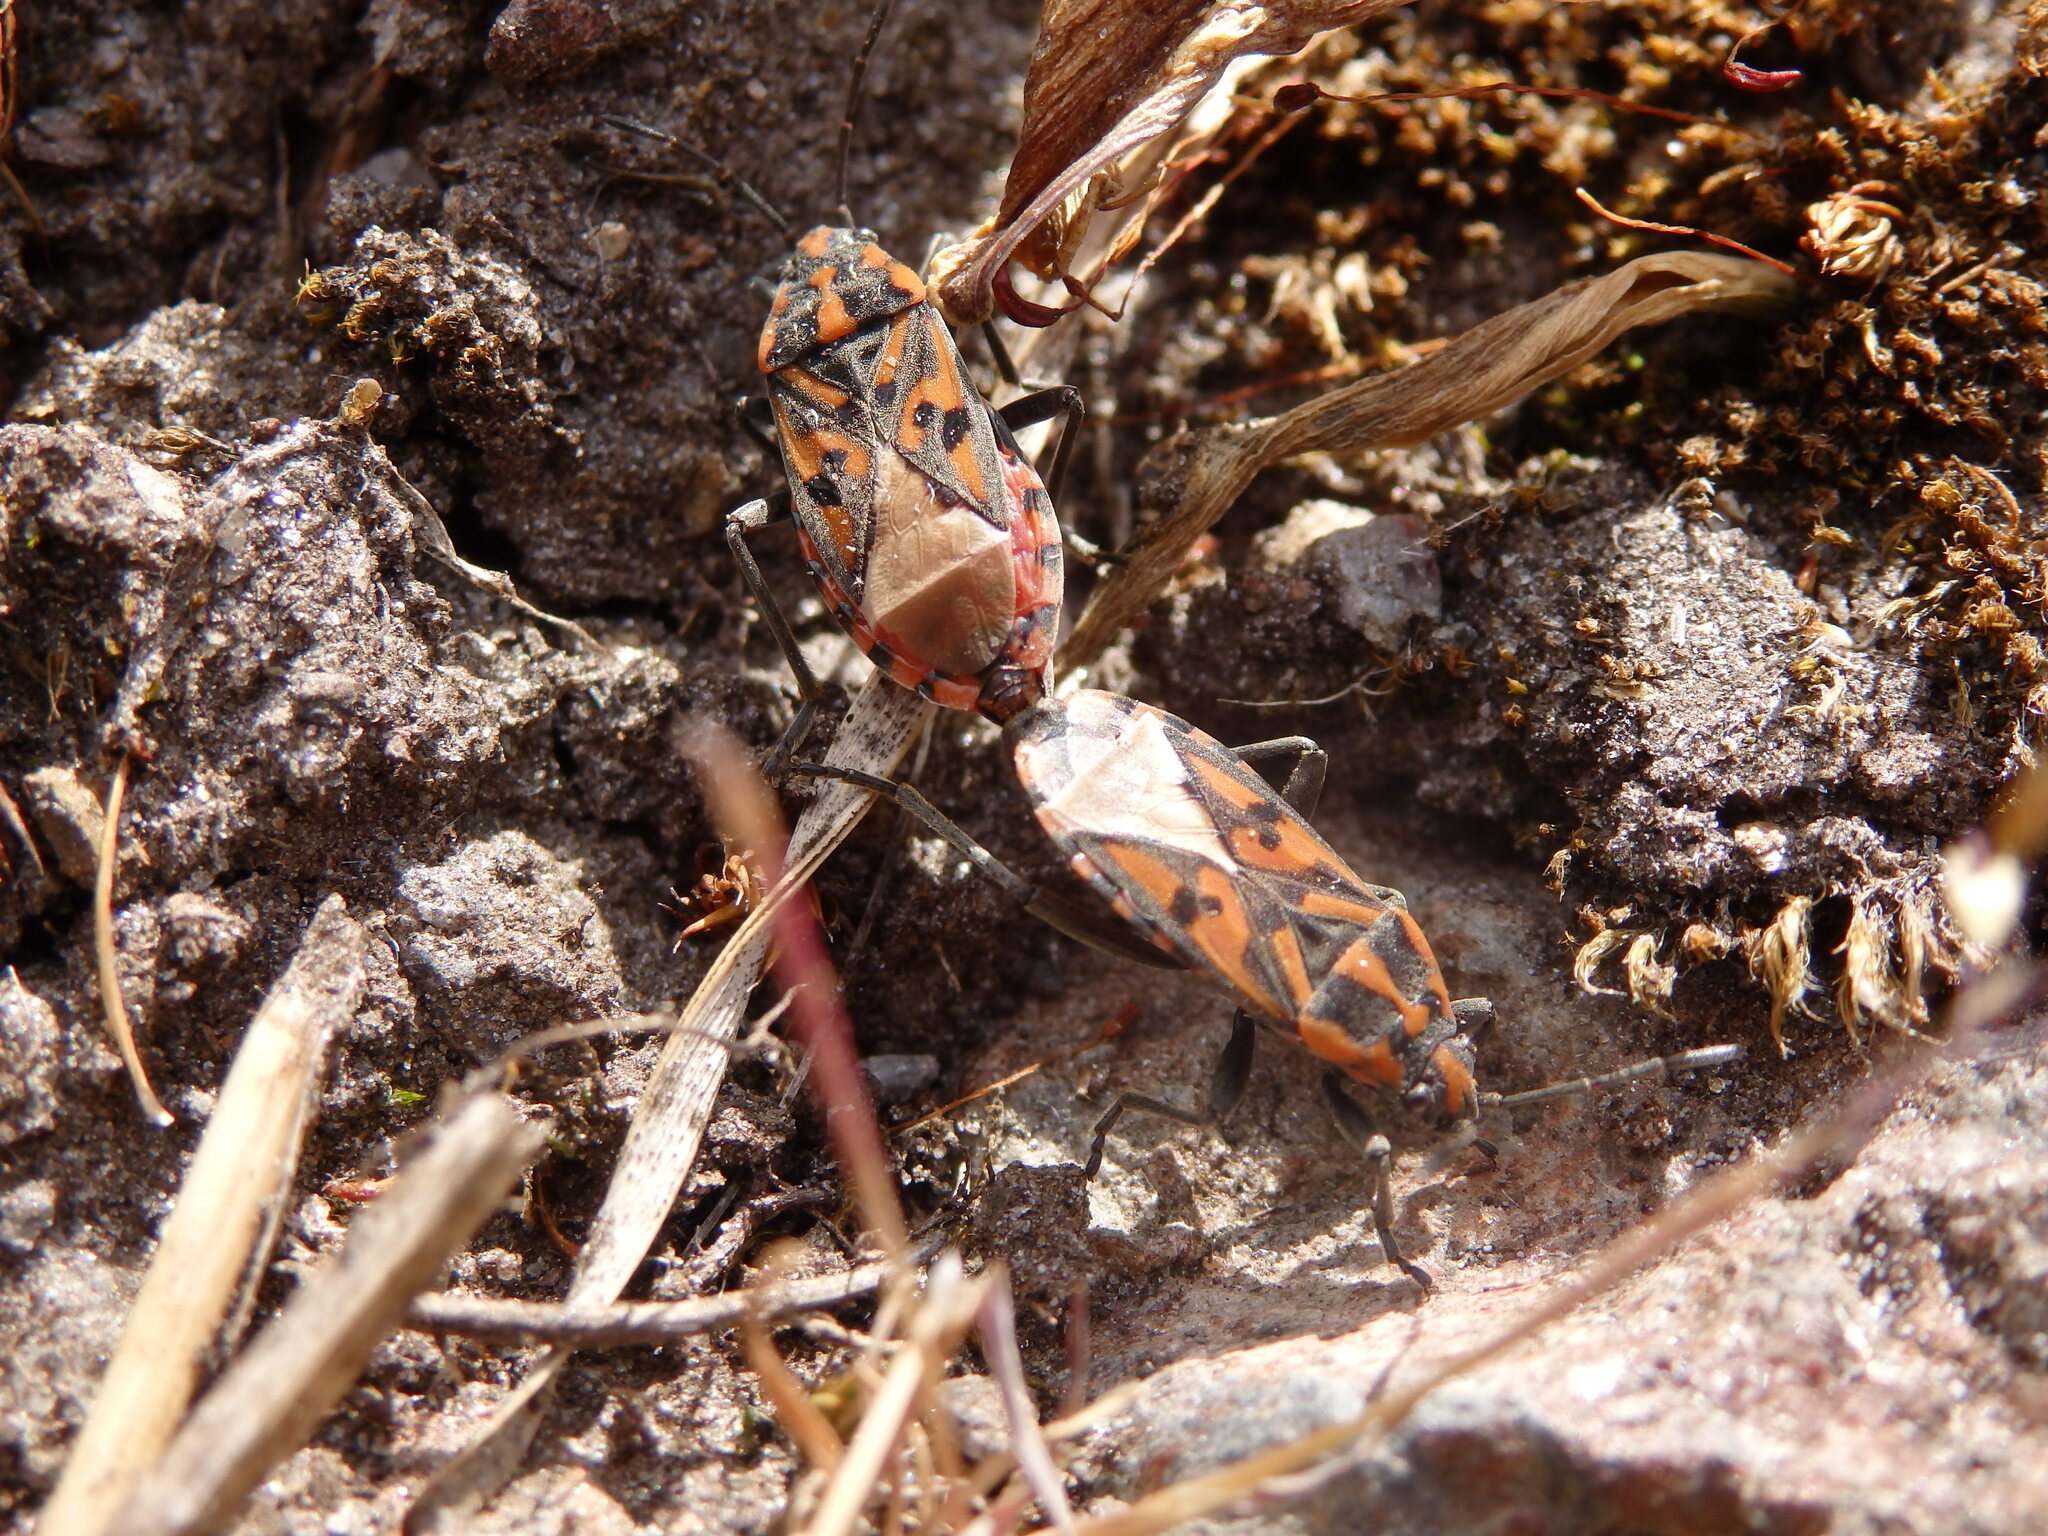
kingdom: Animalia
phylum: Arthropoda
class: Insecta
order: Hemiptera
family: Lygaeidae
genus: Spilostethus
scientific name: Spilostethus saxatilis
